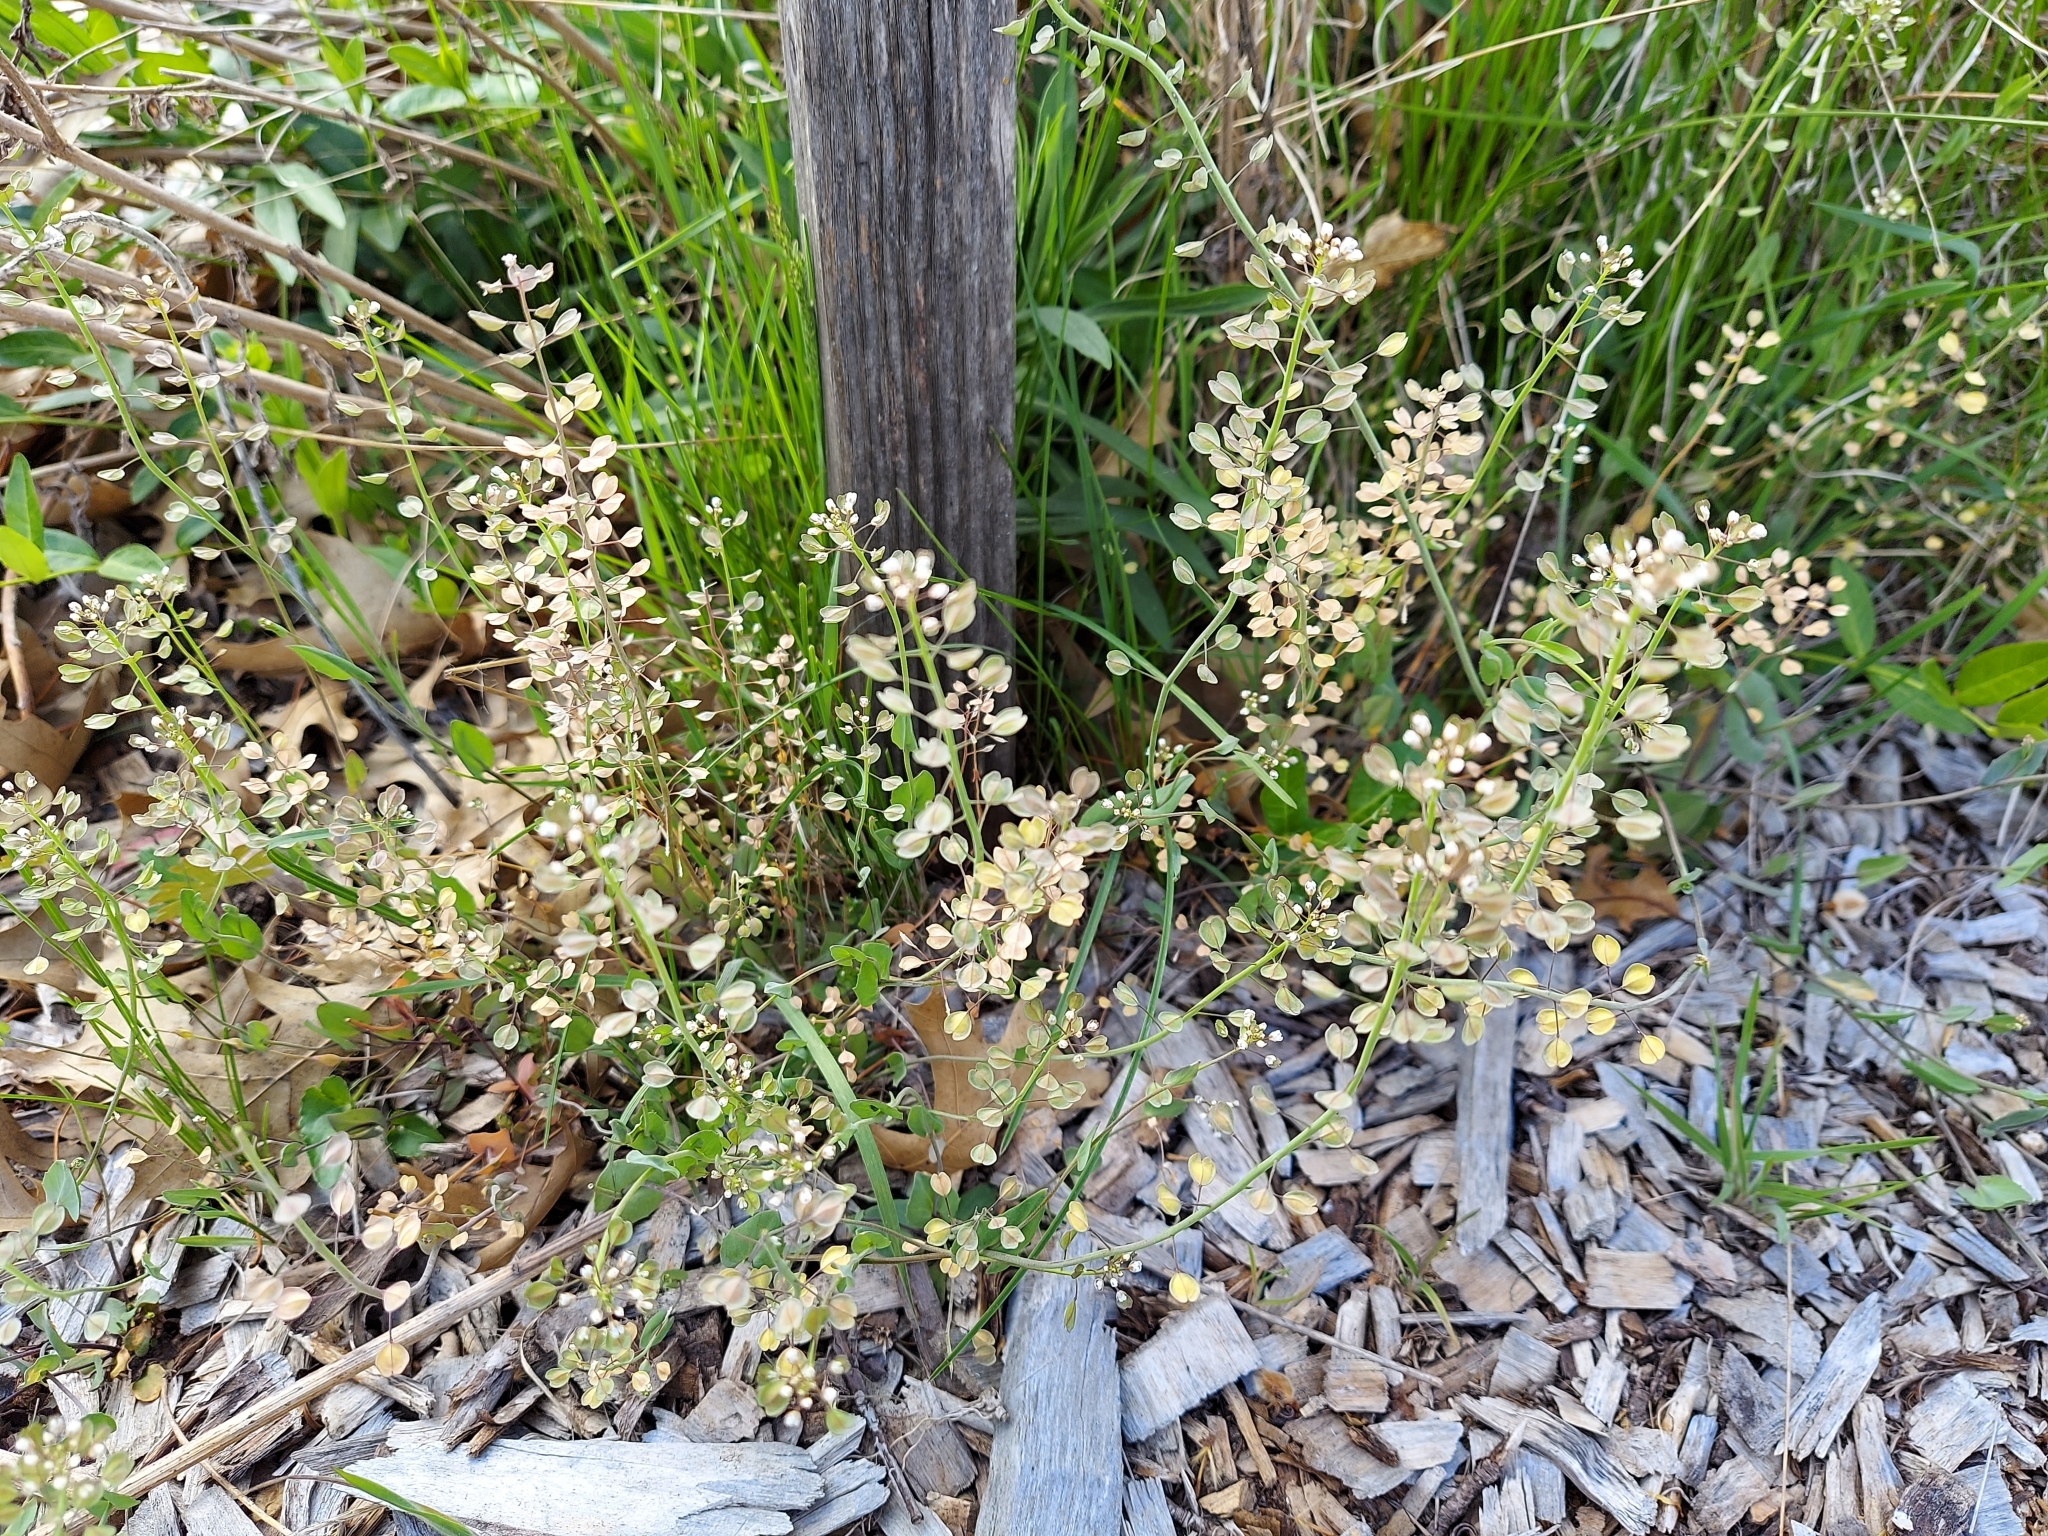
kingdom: Plantae
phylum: Tracheophyta
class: Magnoliopsida
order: Brassicales
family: Brassicaceae
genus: Noccaea
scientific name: Noccaea perfoliata
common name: Perfoliate pennycress
